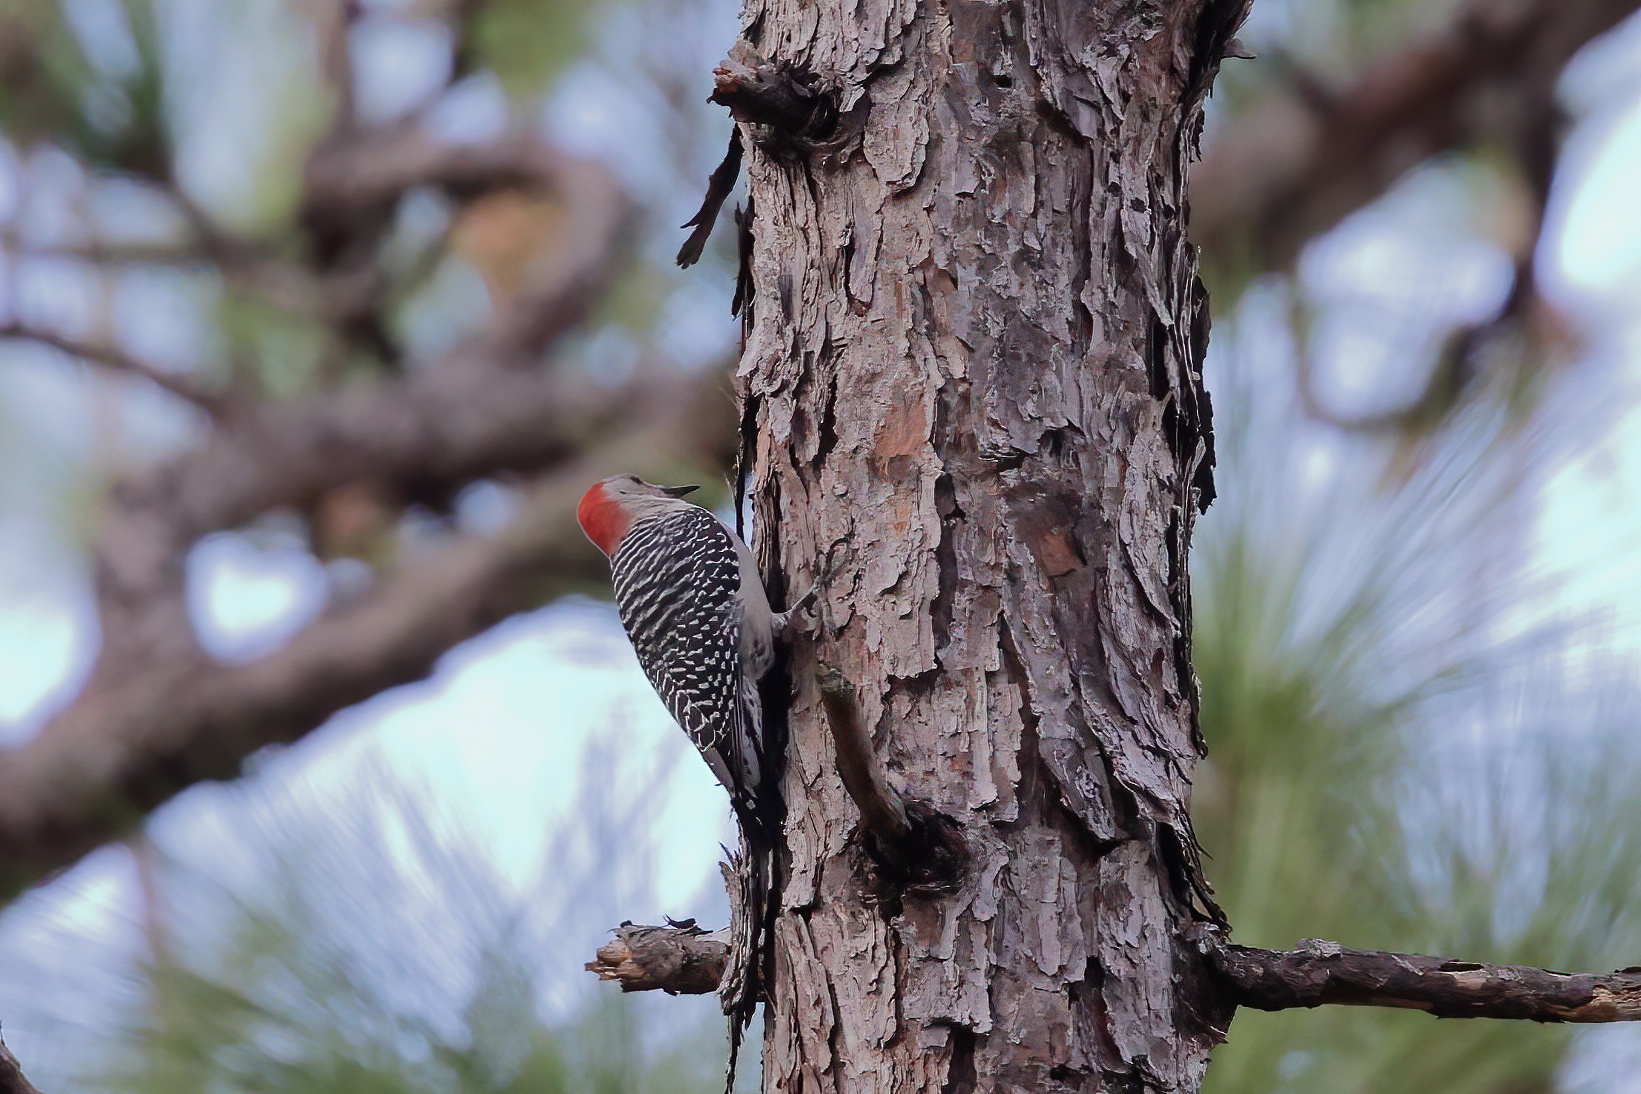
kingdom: Animalia
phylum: Chordata
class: Aves
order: Piciformes
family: Picidae
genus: Melanerpes
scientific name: Melanerpes carolinus
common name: Red-bellied woodpecker
